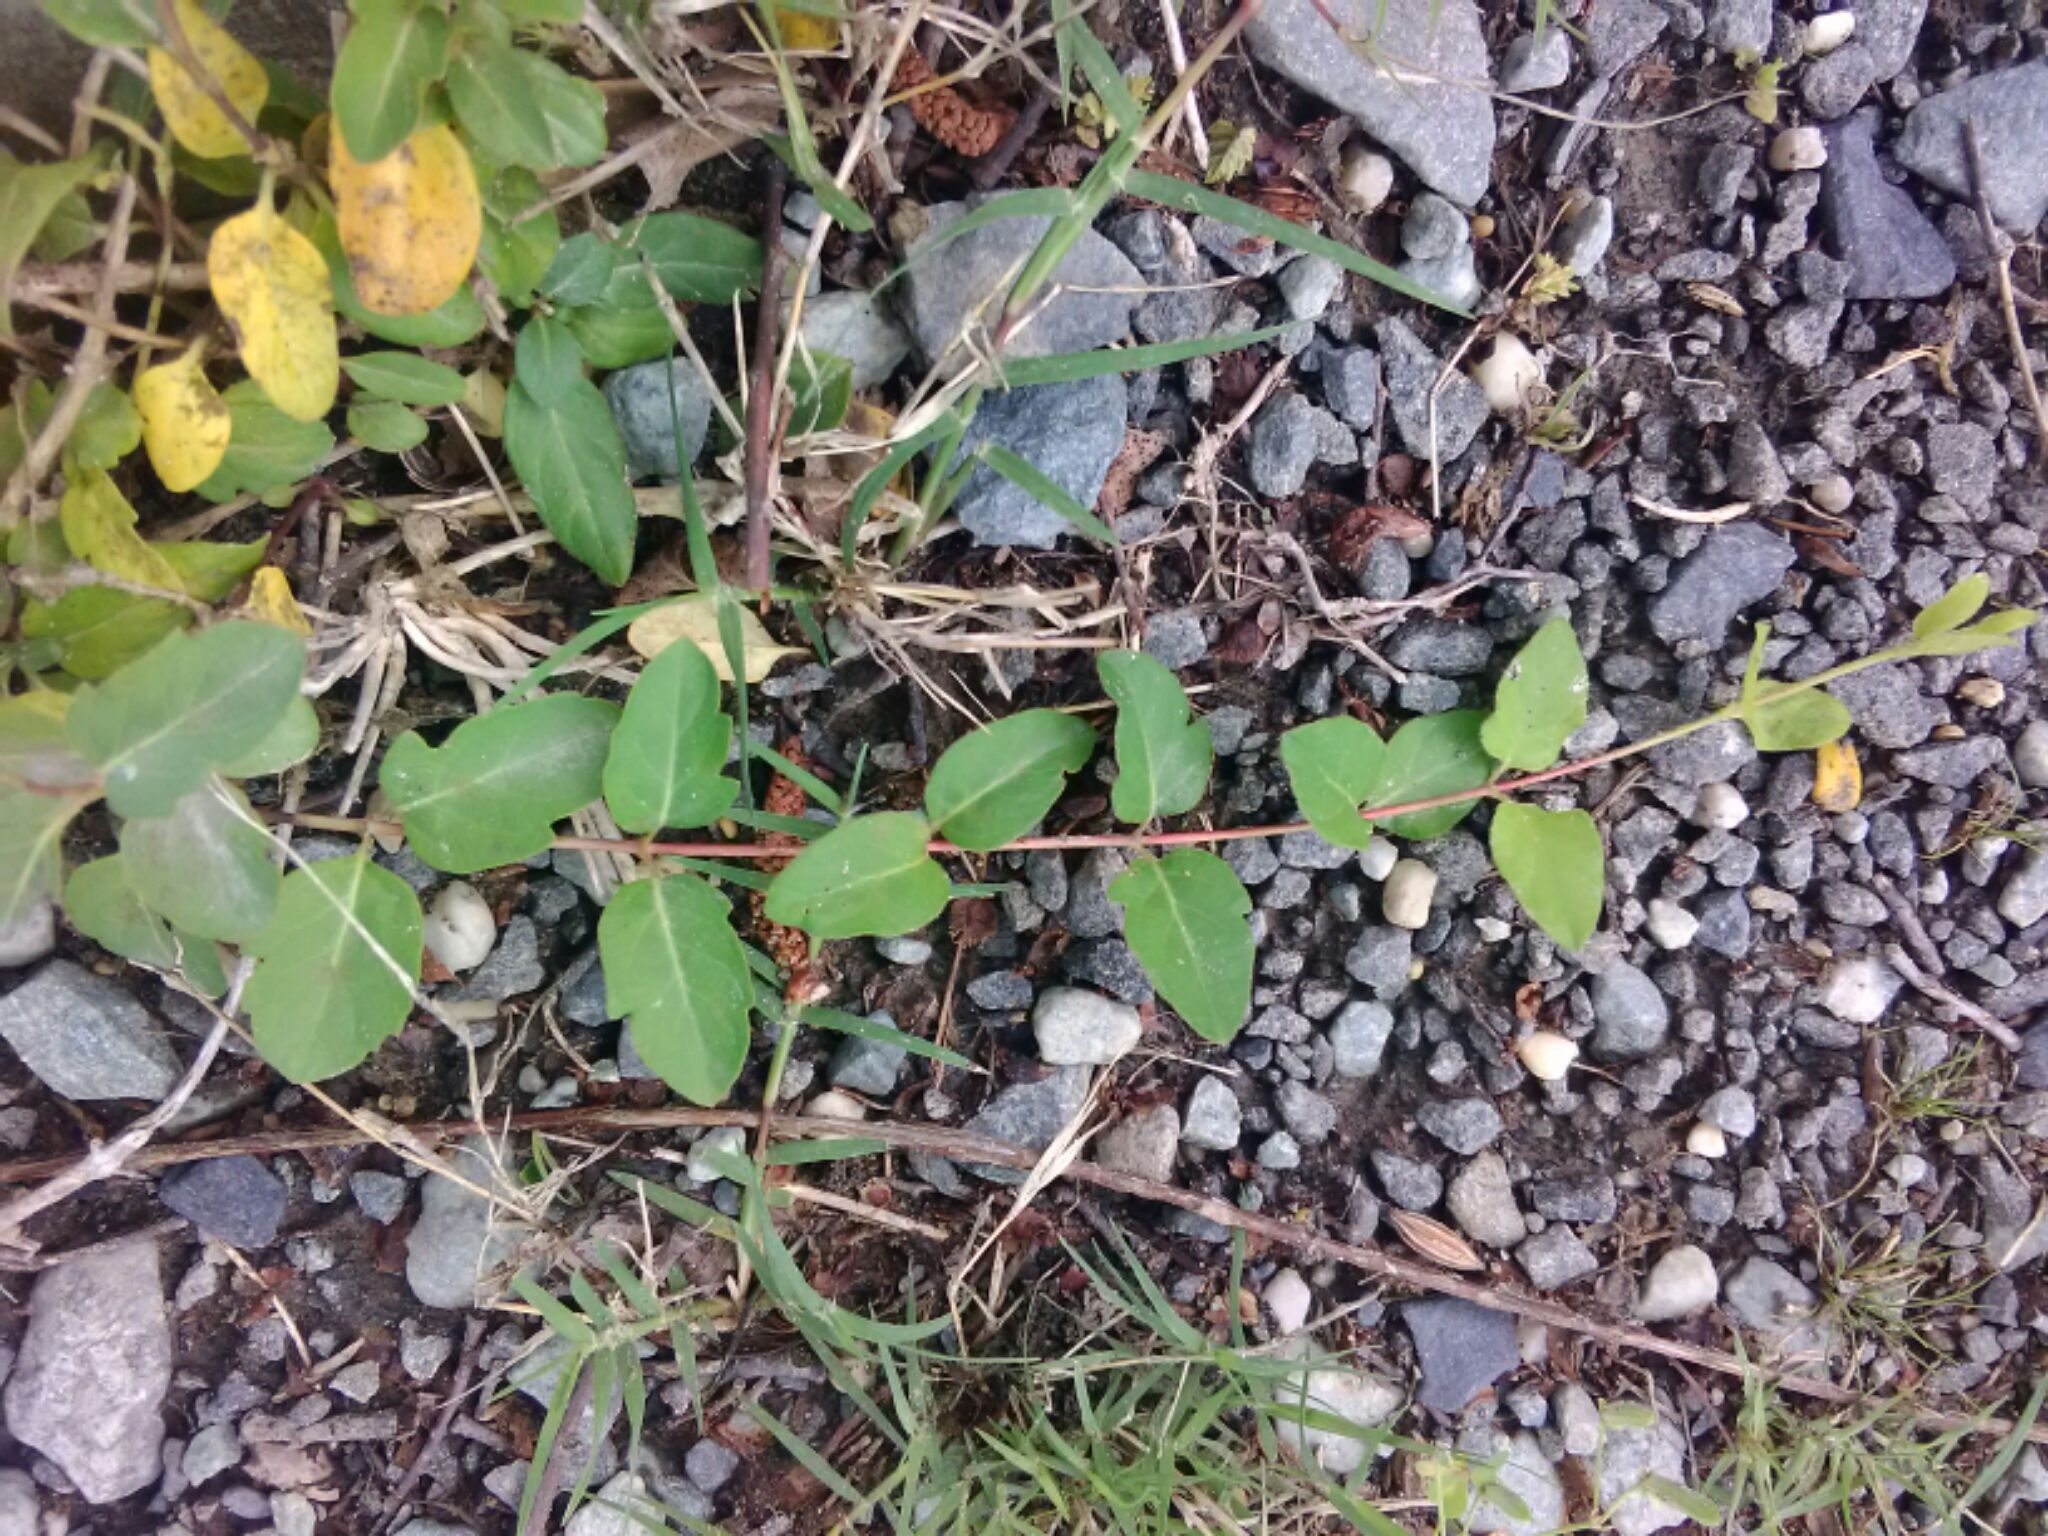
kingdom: Plantae
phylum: Tracheophyta
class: Magnoliopsida
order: Dipsacales
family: Caprifoliaceae
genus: Lonicera
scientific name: Lonicera japonica
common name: Japanese honeysuckle
